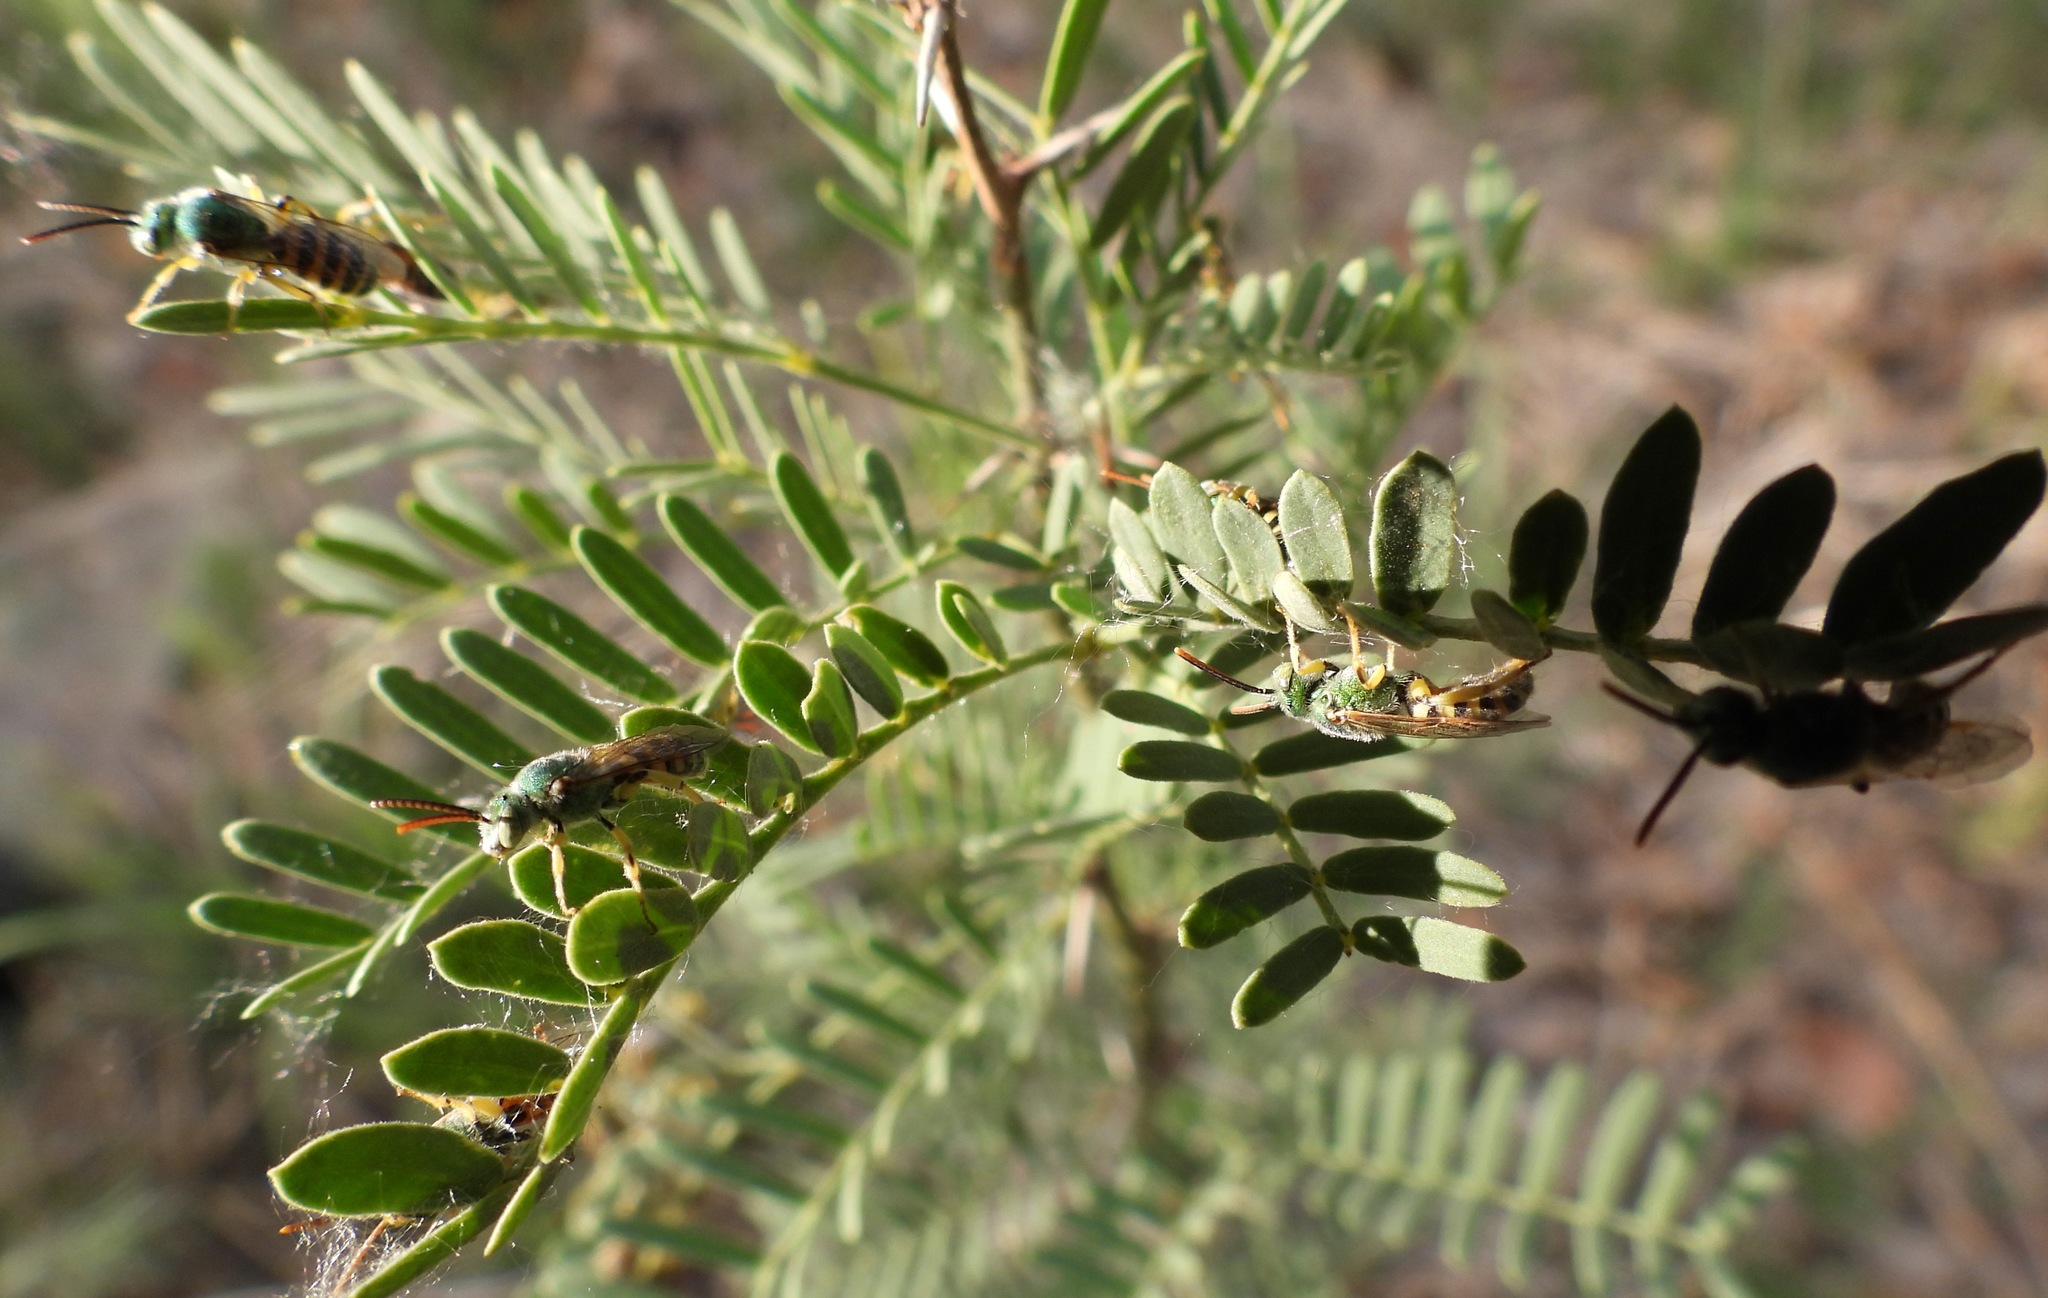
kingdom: Animalia
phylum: Arthropoda
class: Insecta
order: Hymenoptera
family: Halictidae
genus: Agapostemon
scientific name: Agapostemon
